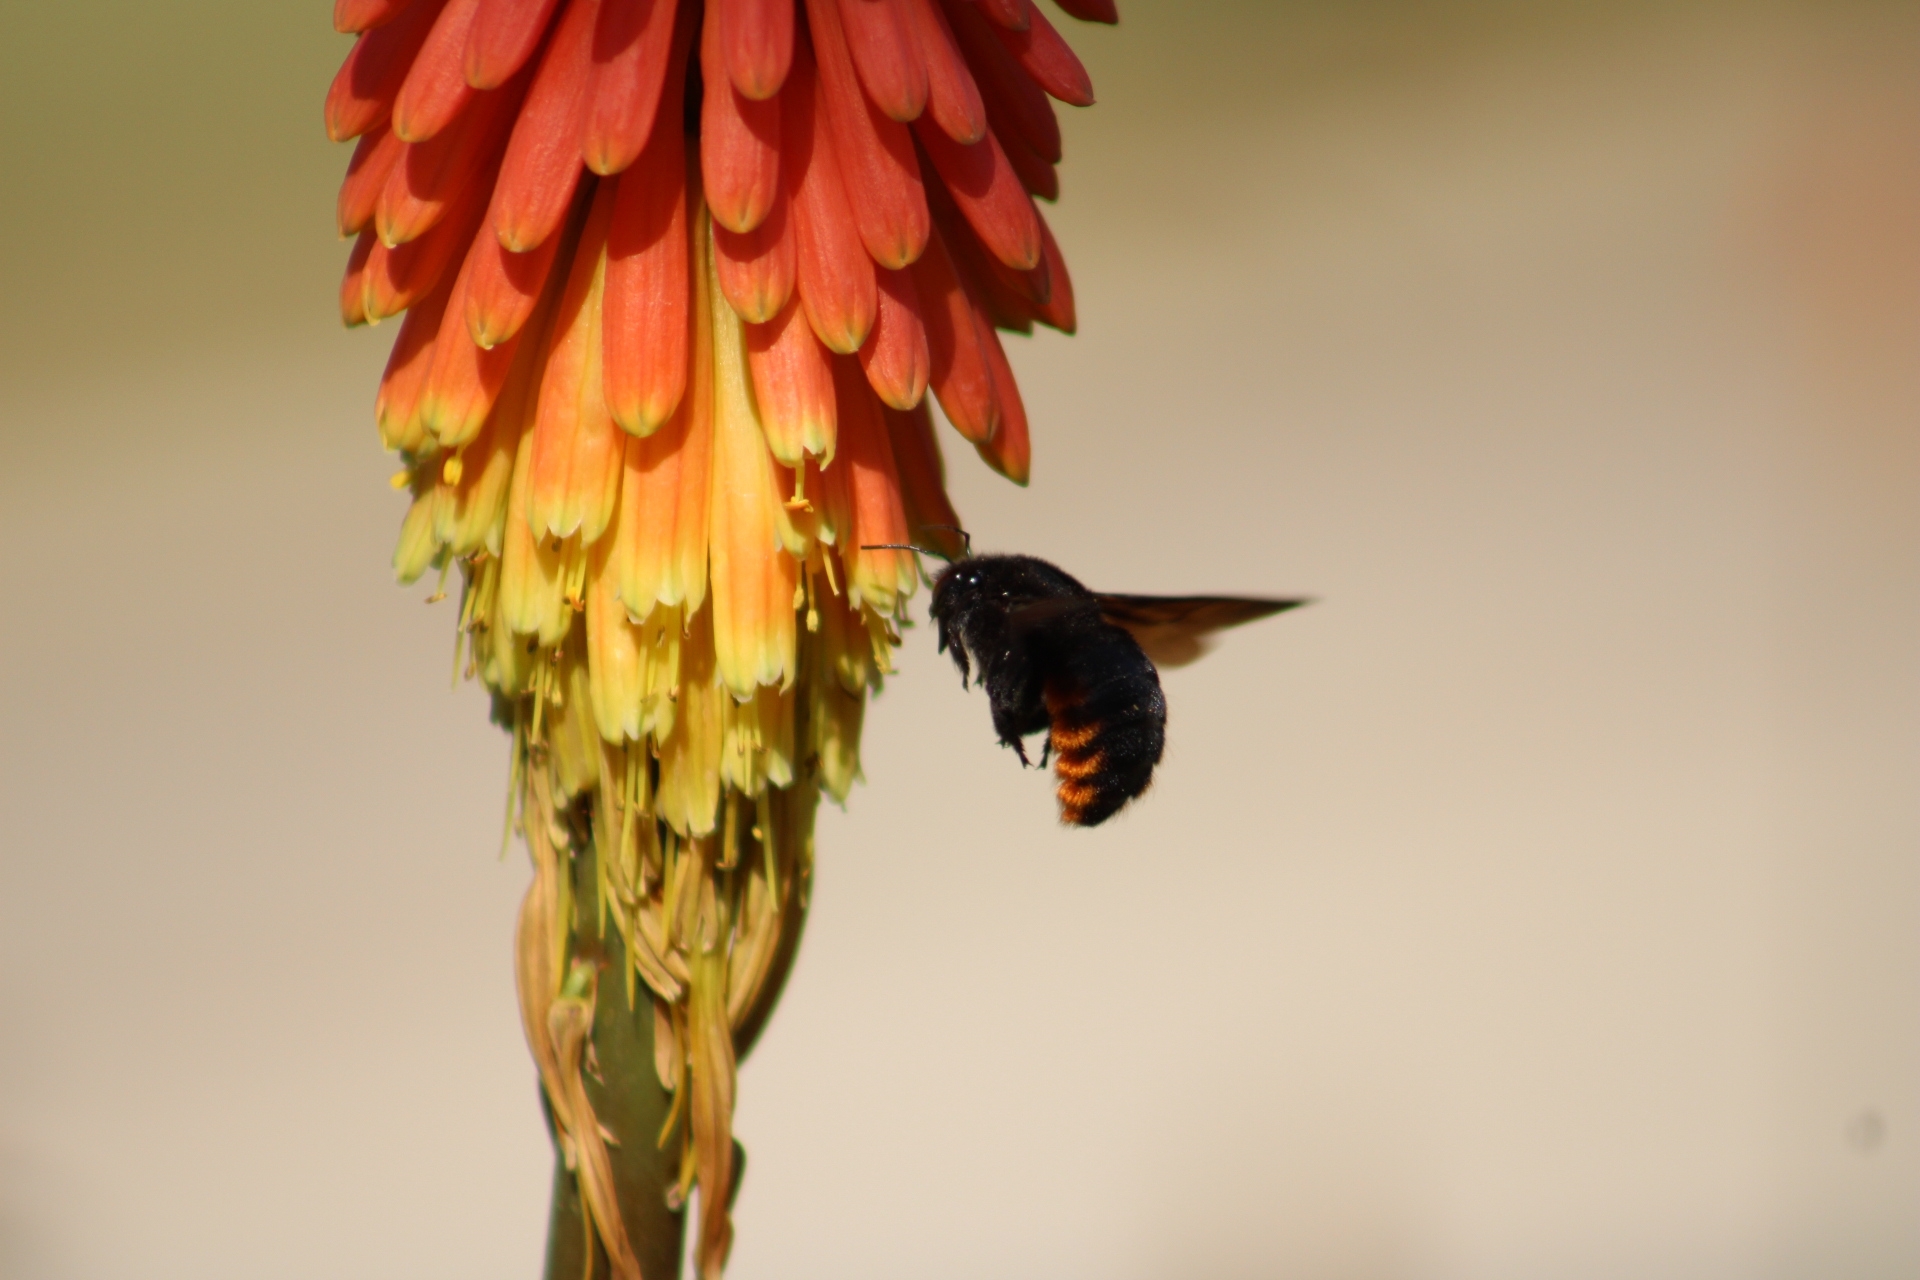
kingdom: Animalia
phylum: Arthropoda
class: Insecta
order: Hymenoptera
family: Apidae
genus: Xylocopa
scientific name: Xylocopa augusti
